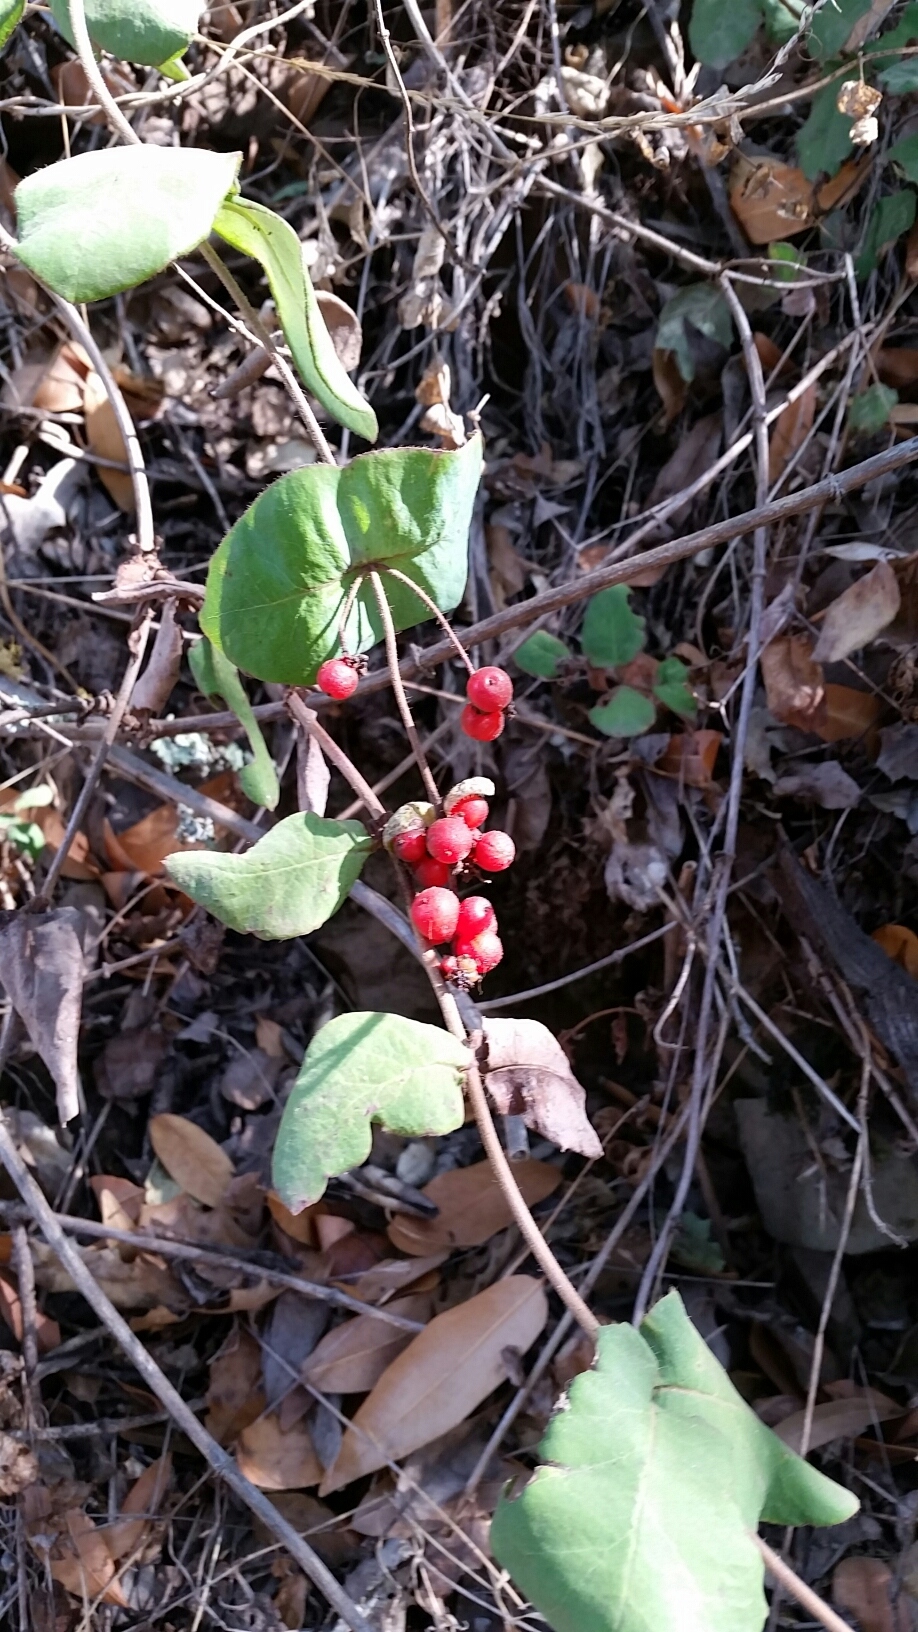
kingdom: Plantae
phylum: Tracheophyta
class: Magnoliopsida
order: Dipsacales
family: Caprifoliaceae
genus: Lonicera
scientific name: Lonicera hispidula
